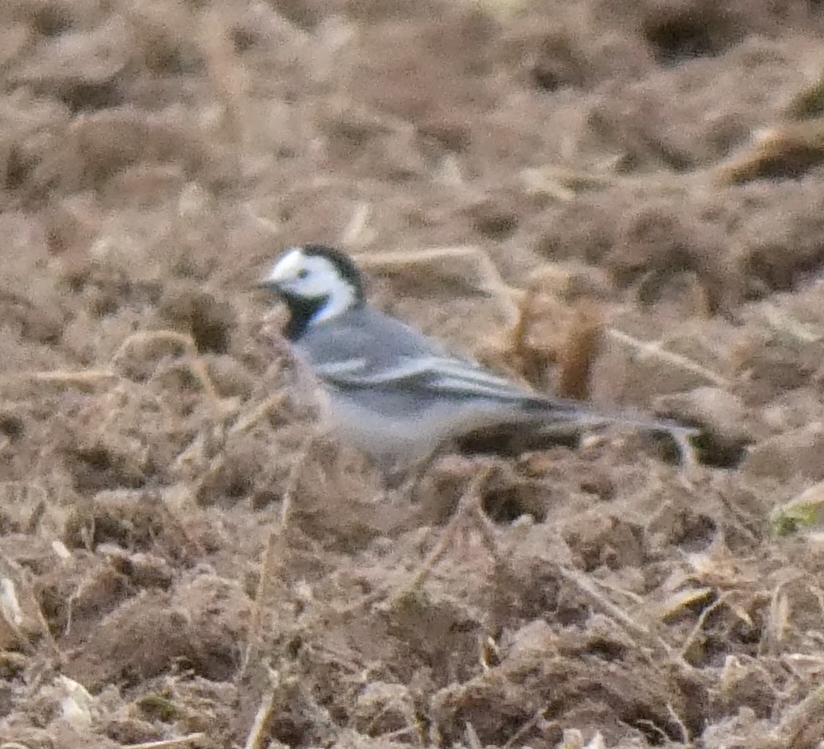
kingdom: Animalia
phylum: Chordata
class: Aves
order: Passeriformes
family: Motacillidae
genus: Motacilla
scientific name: Motacilla alba
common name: White wagtail
